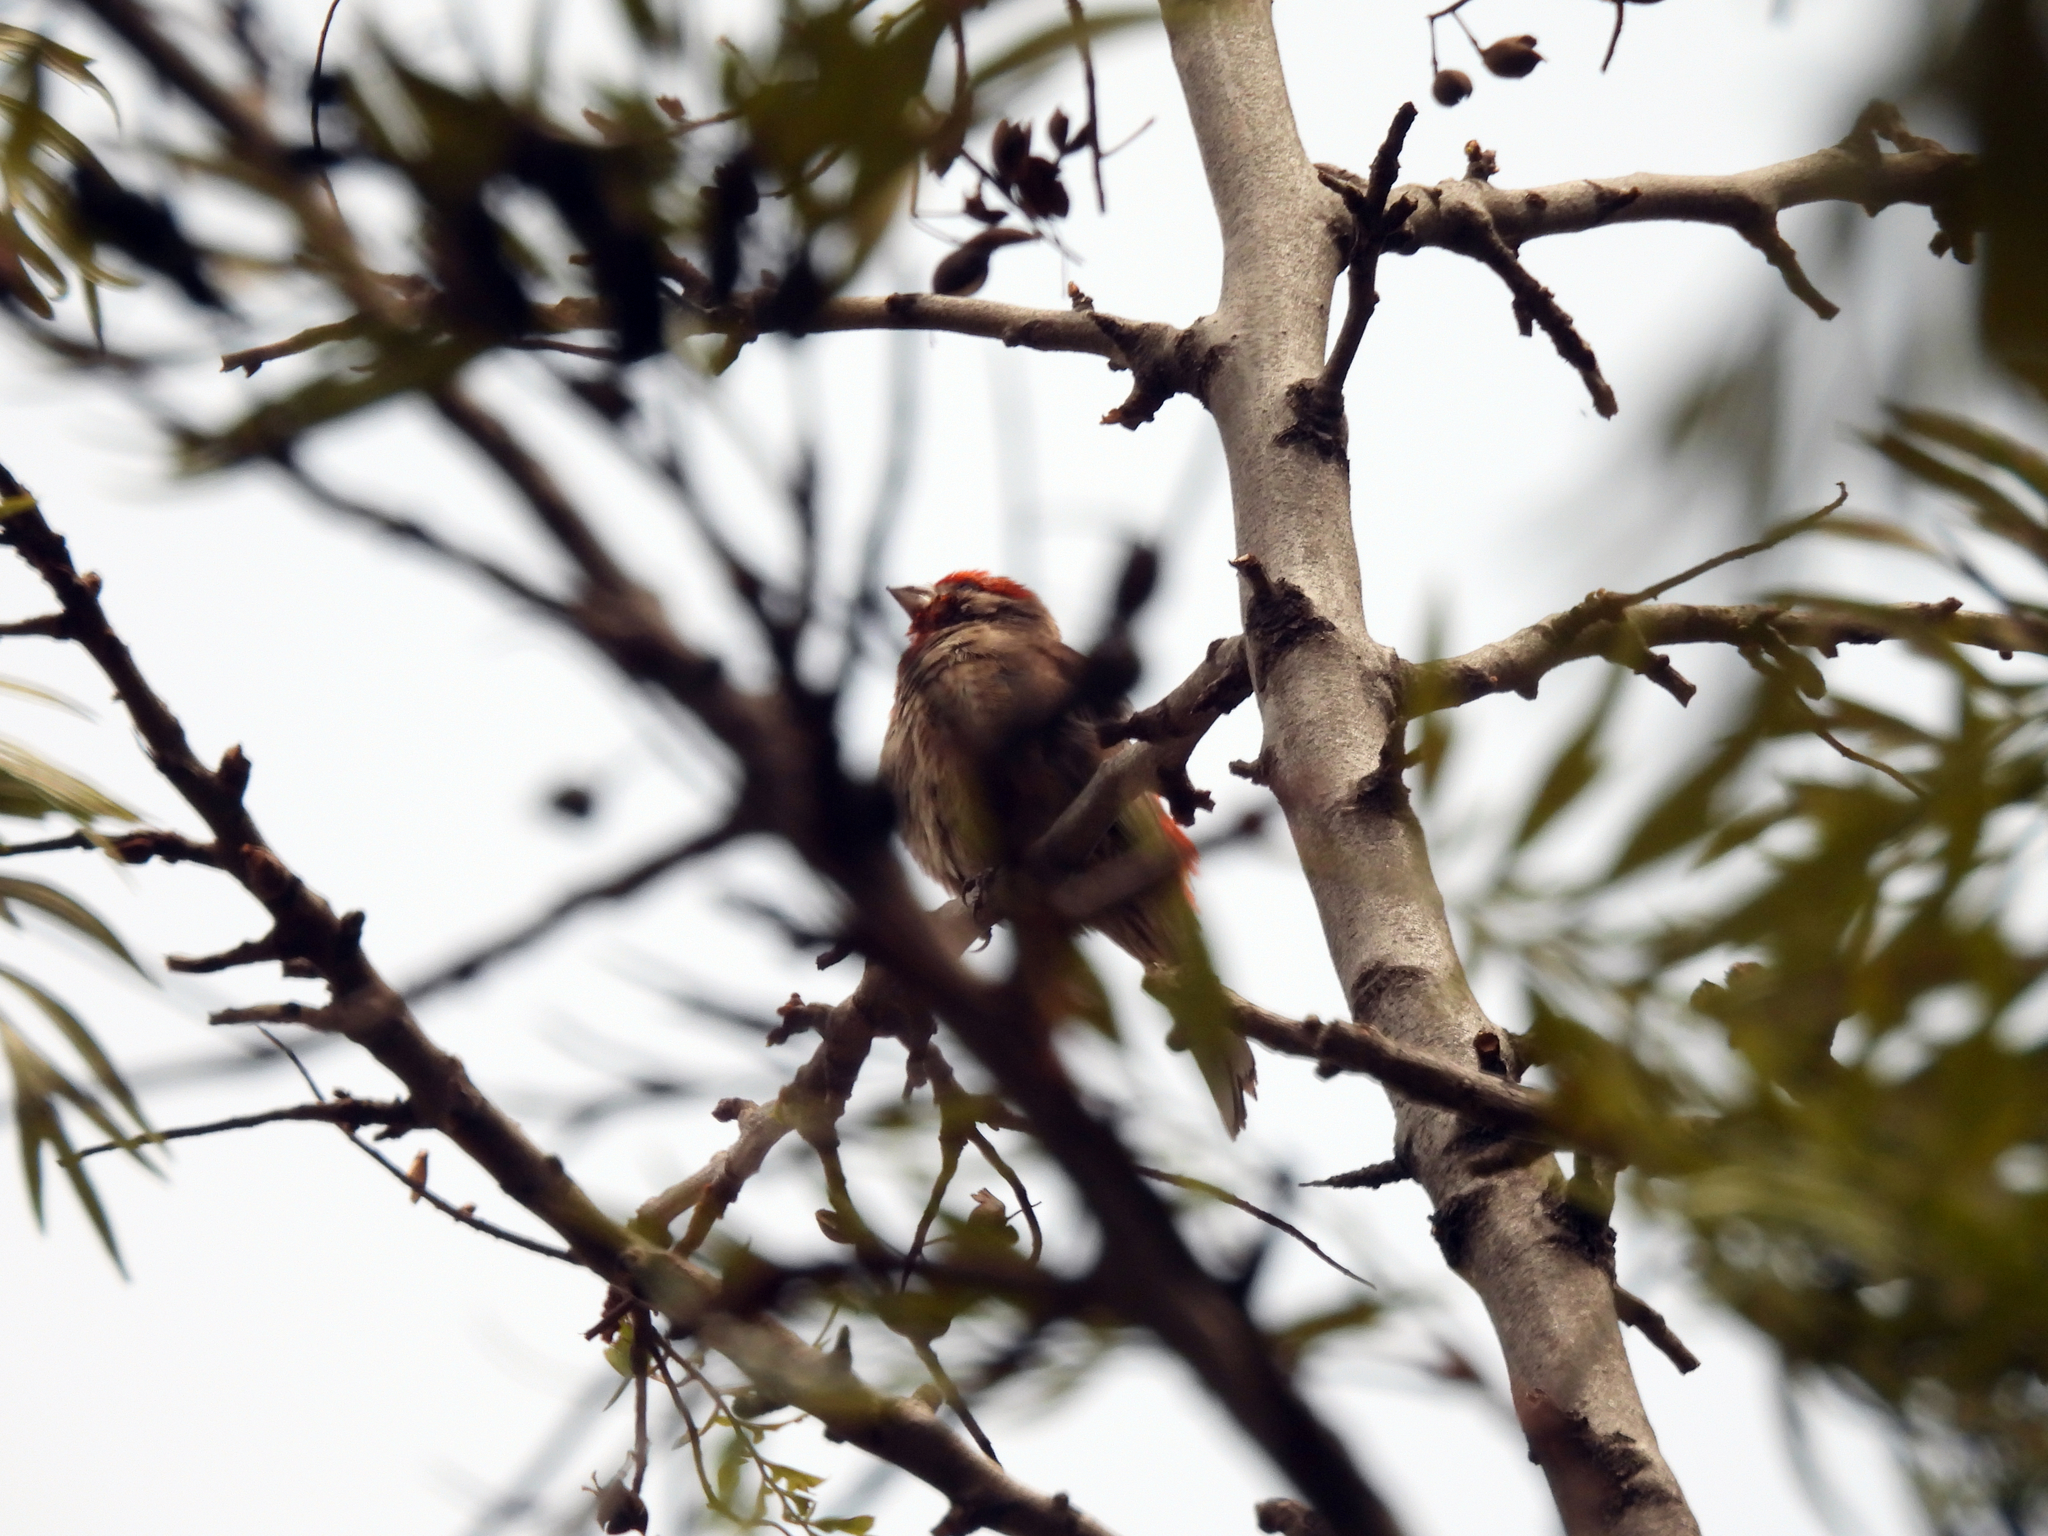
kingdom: Animalia
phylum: Chordata
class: Aves
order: Passeriformes
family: Fringillidae
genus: Haemorhous
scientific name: Haemorhous mexicanus
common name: House finch
